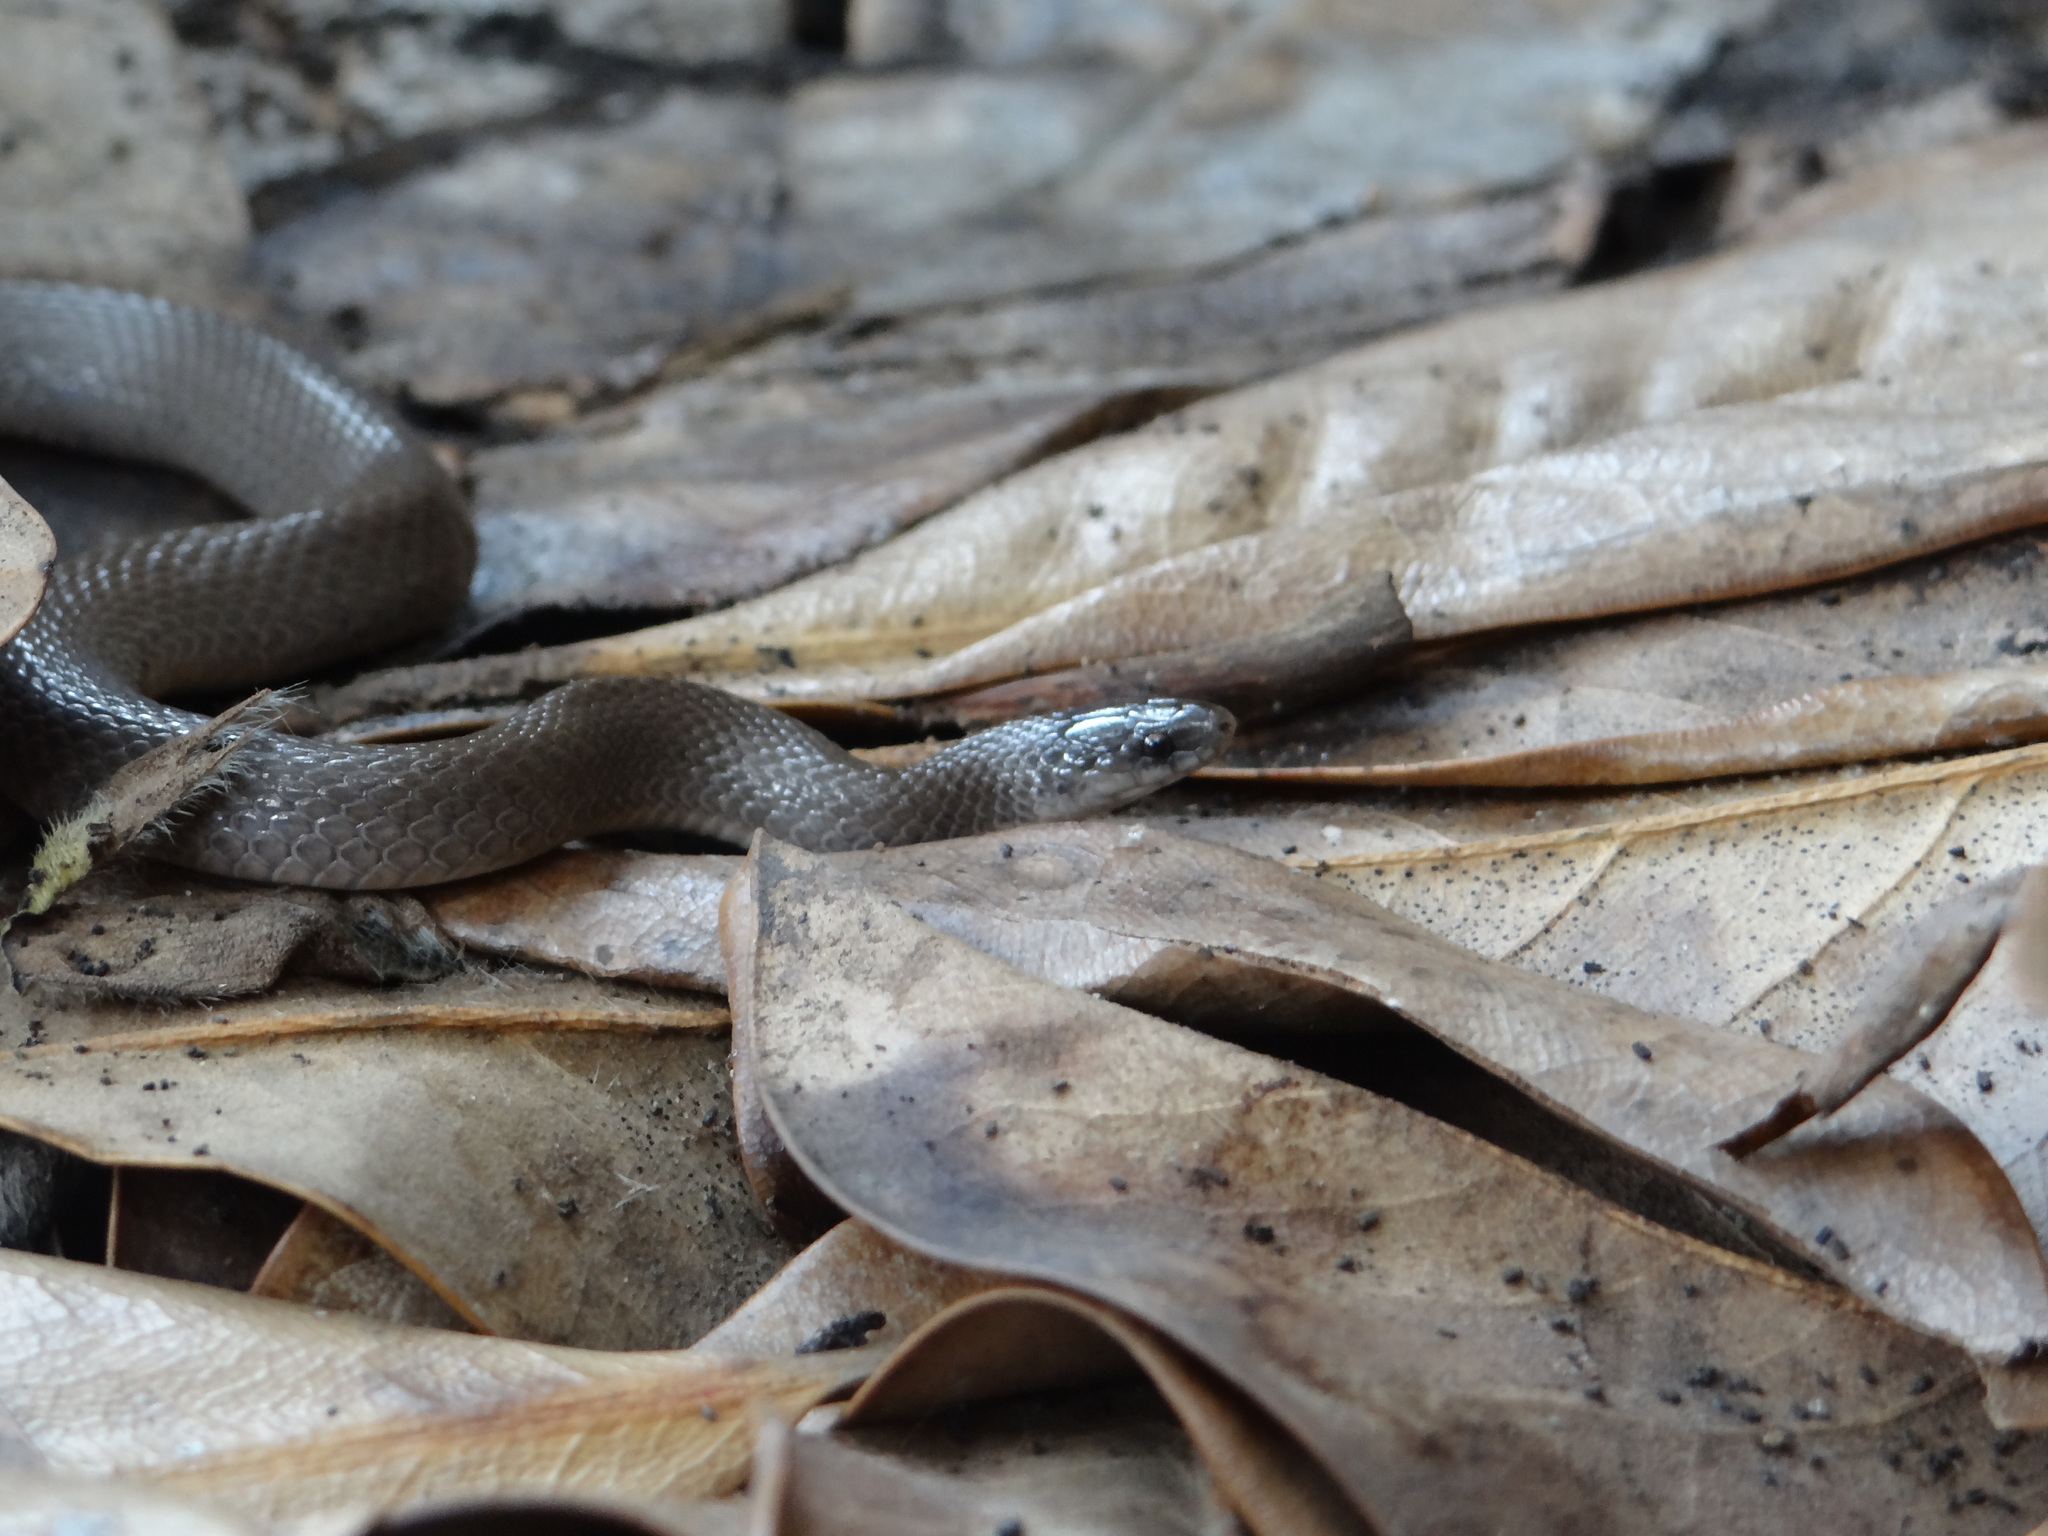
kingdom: Animalia
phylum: Chordata
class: Squamata
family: Colubridae
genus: Haldea
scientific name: Haldea striatula
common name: Rough earth snake
